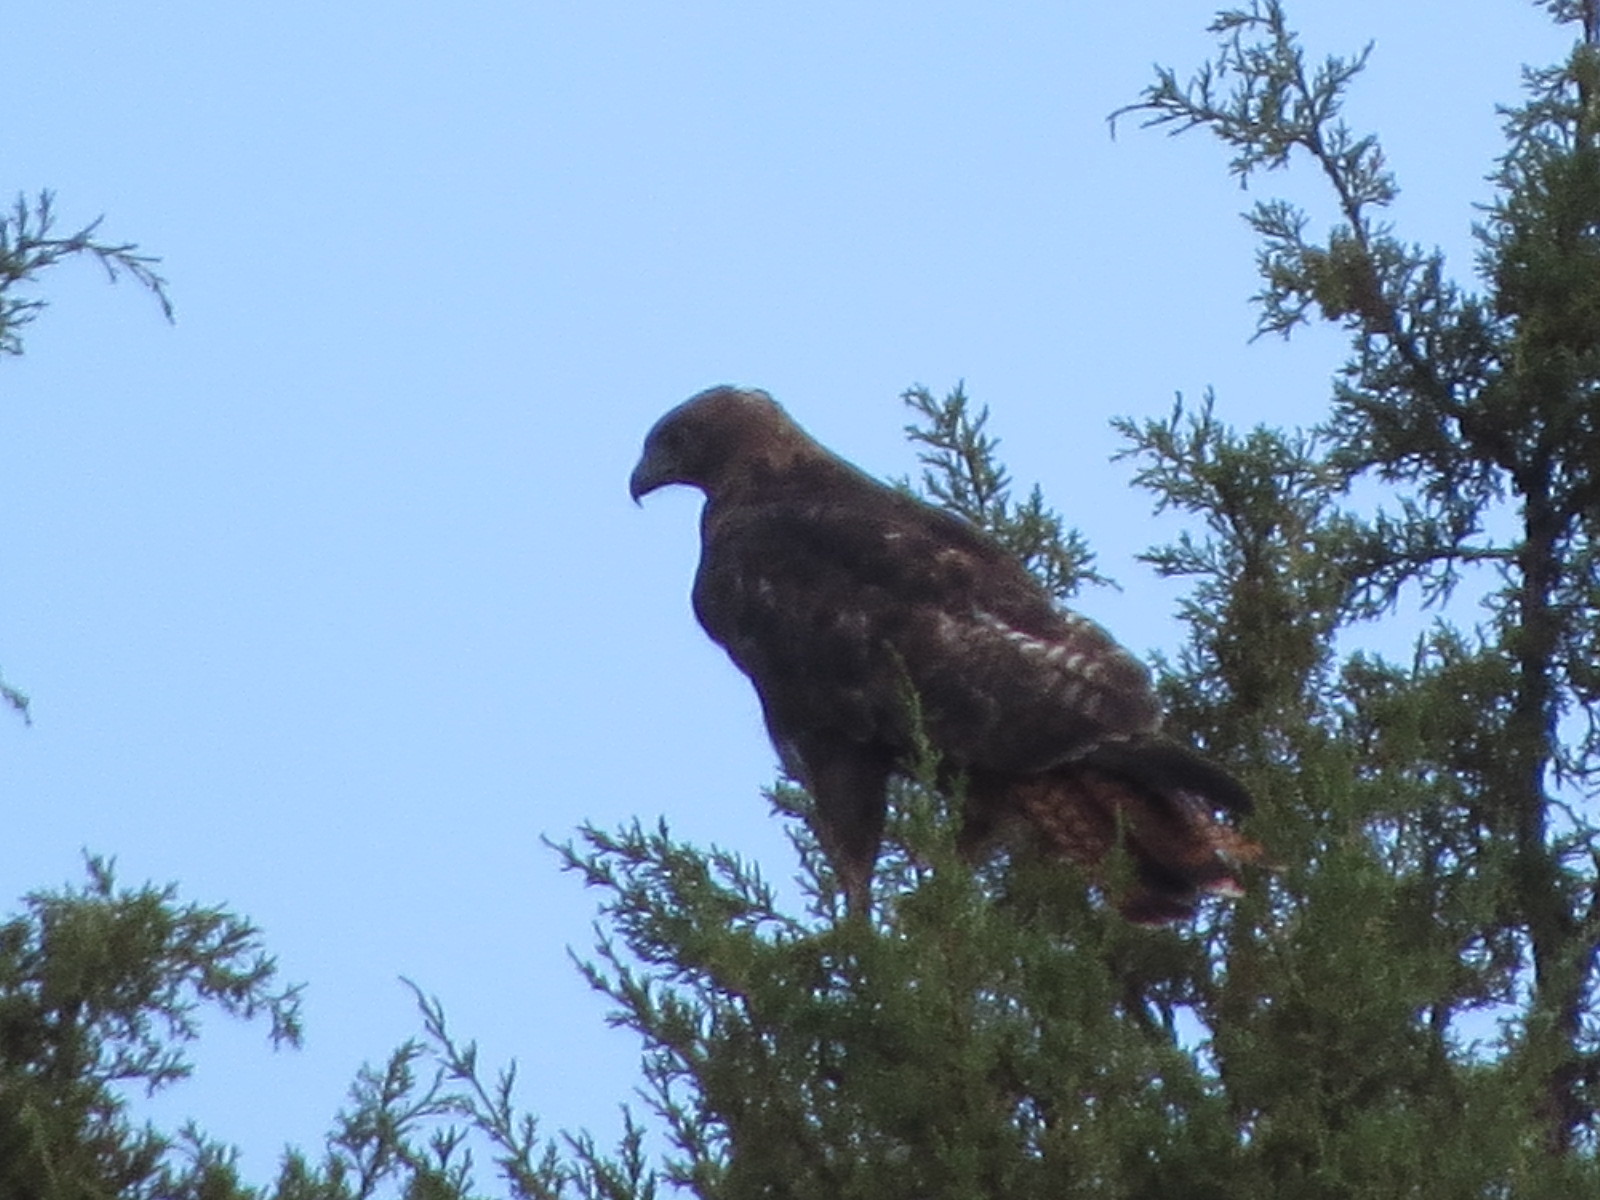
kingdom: Animalia
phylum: Chordata
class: Aves
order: Accipitriformes
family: Accipitridae
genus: Buteo
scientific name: Buteo jamaicensis
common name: Red-tailed hawk
